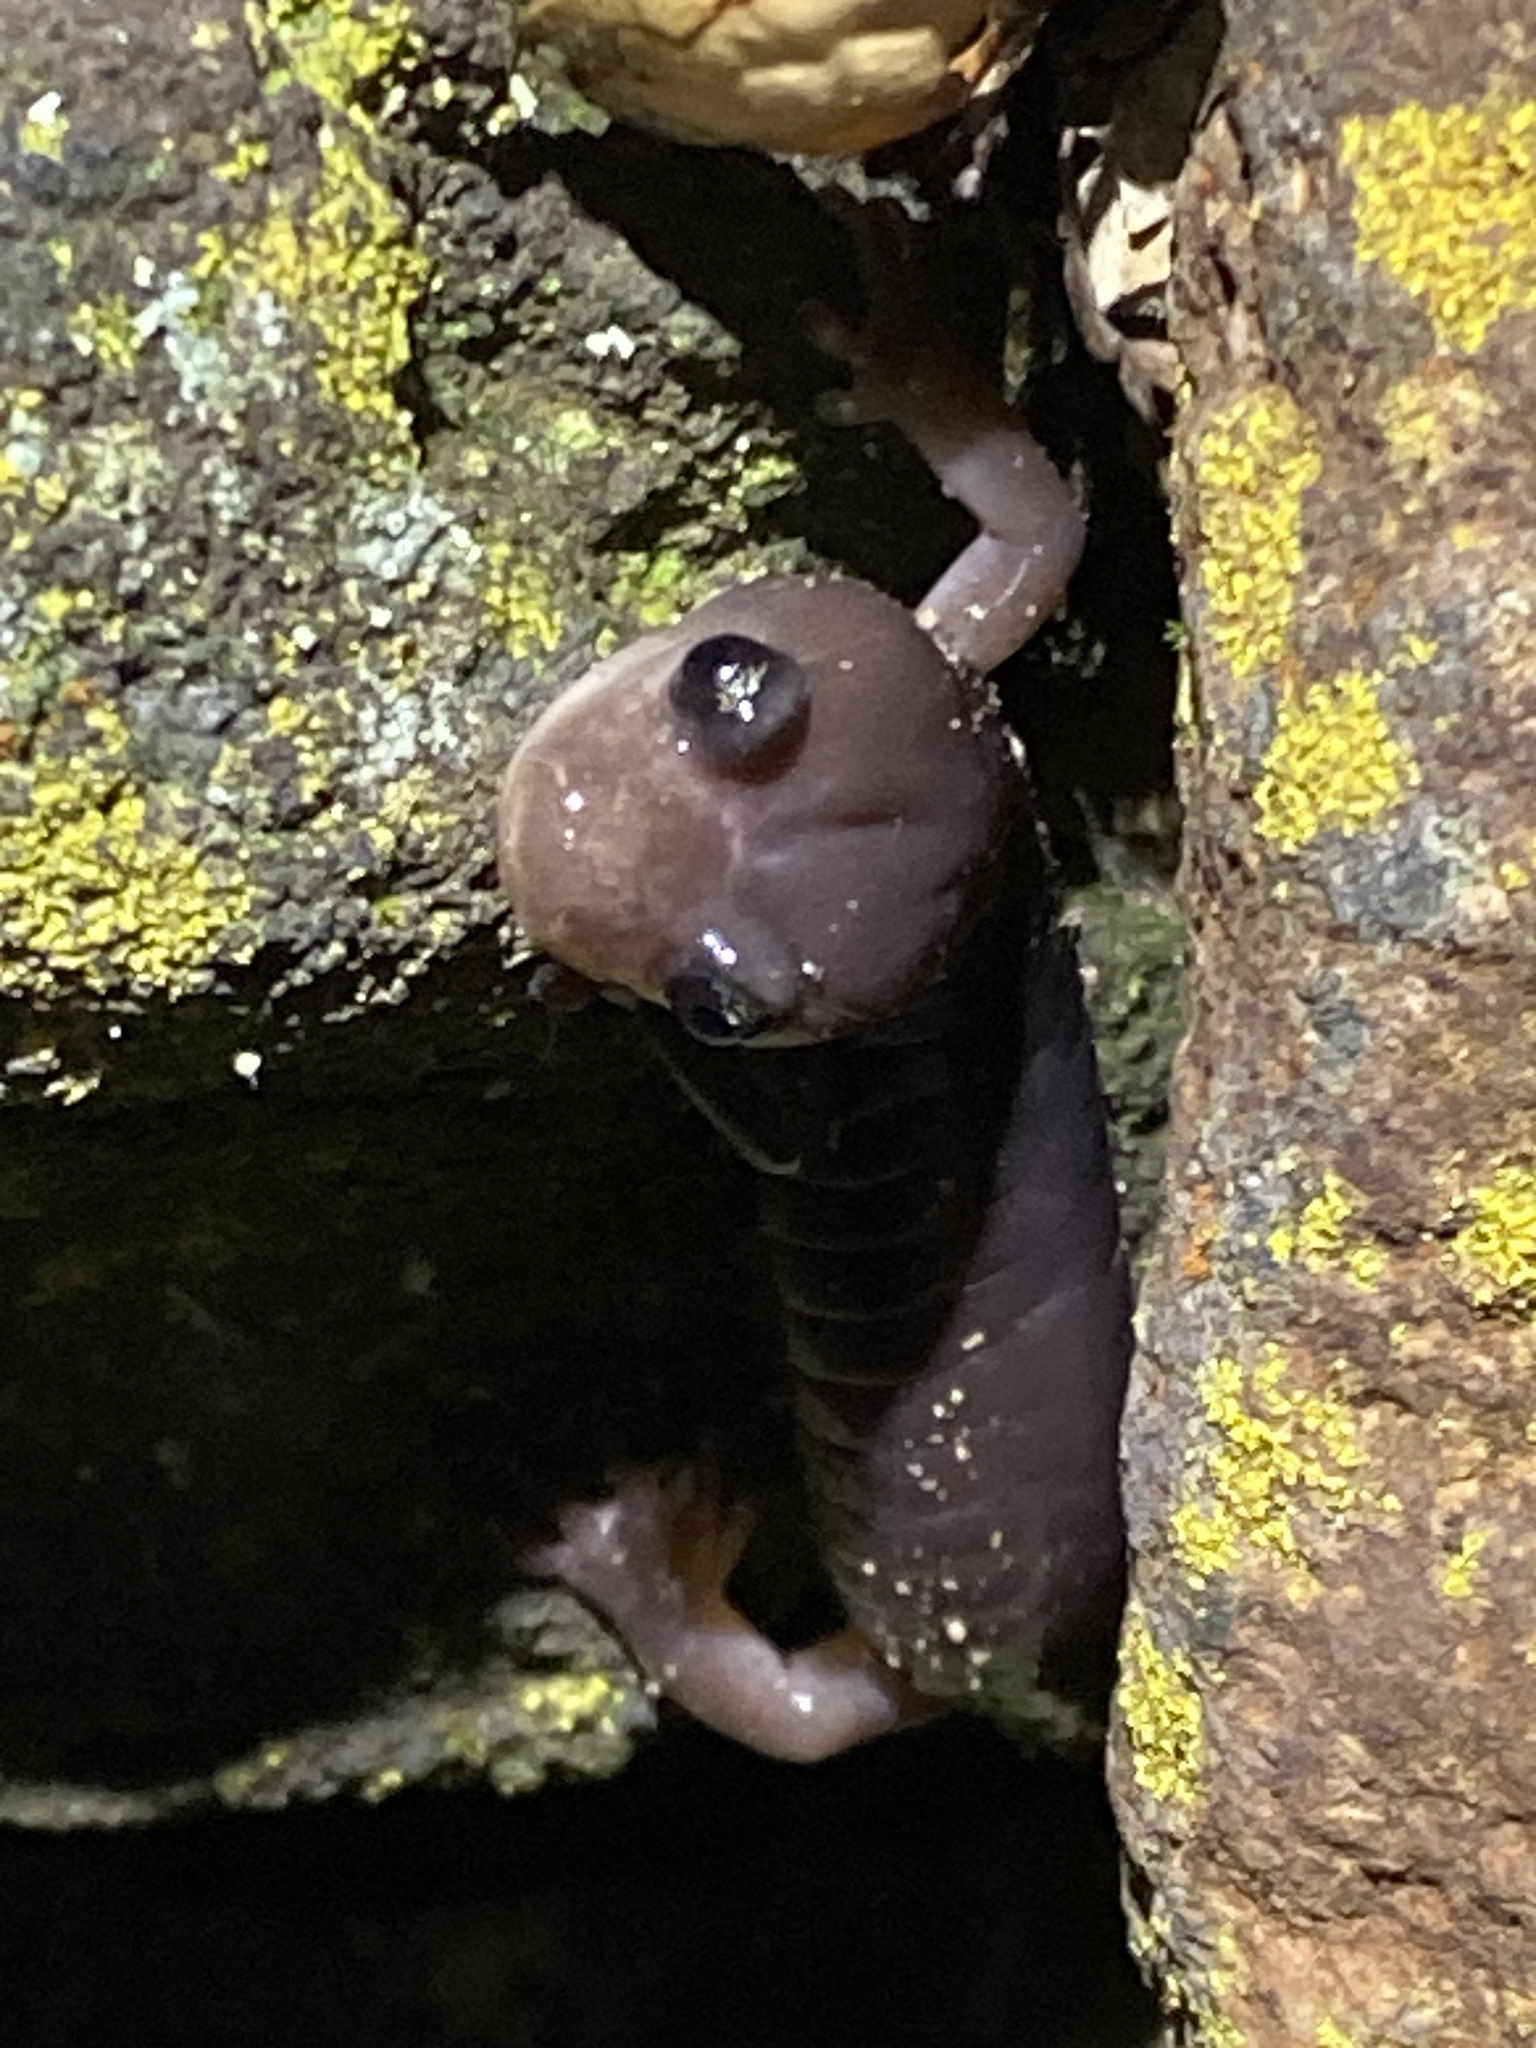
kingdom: Animalia
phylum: Chordata
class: Amphibia
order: Caudata
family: Plethodontidae
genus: Aneides
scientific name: Aneides lugubris
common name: Arboreal salamander
